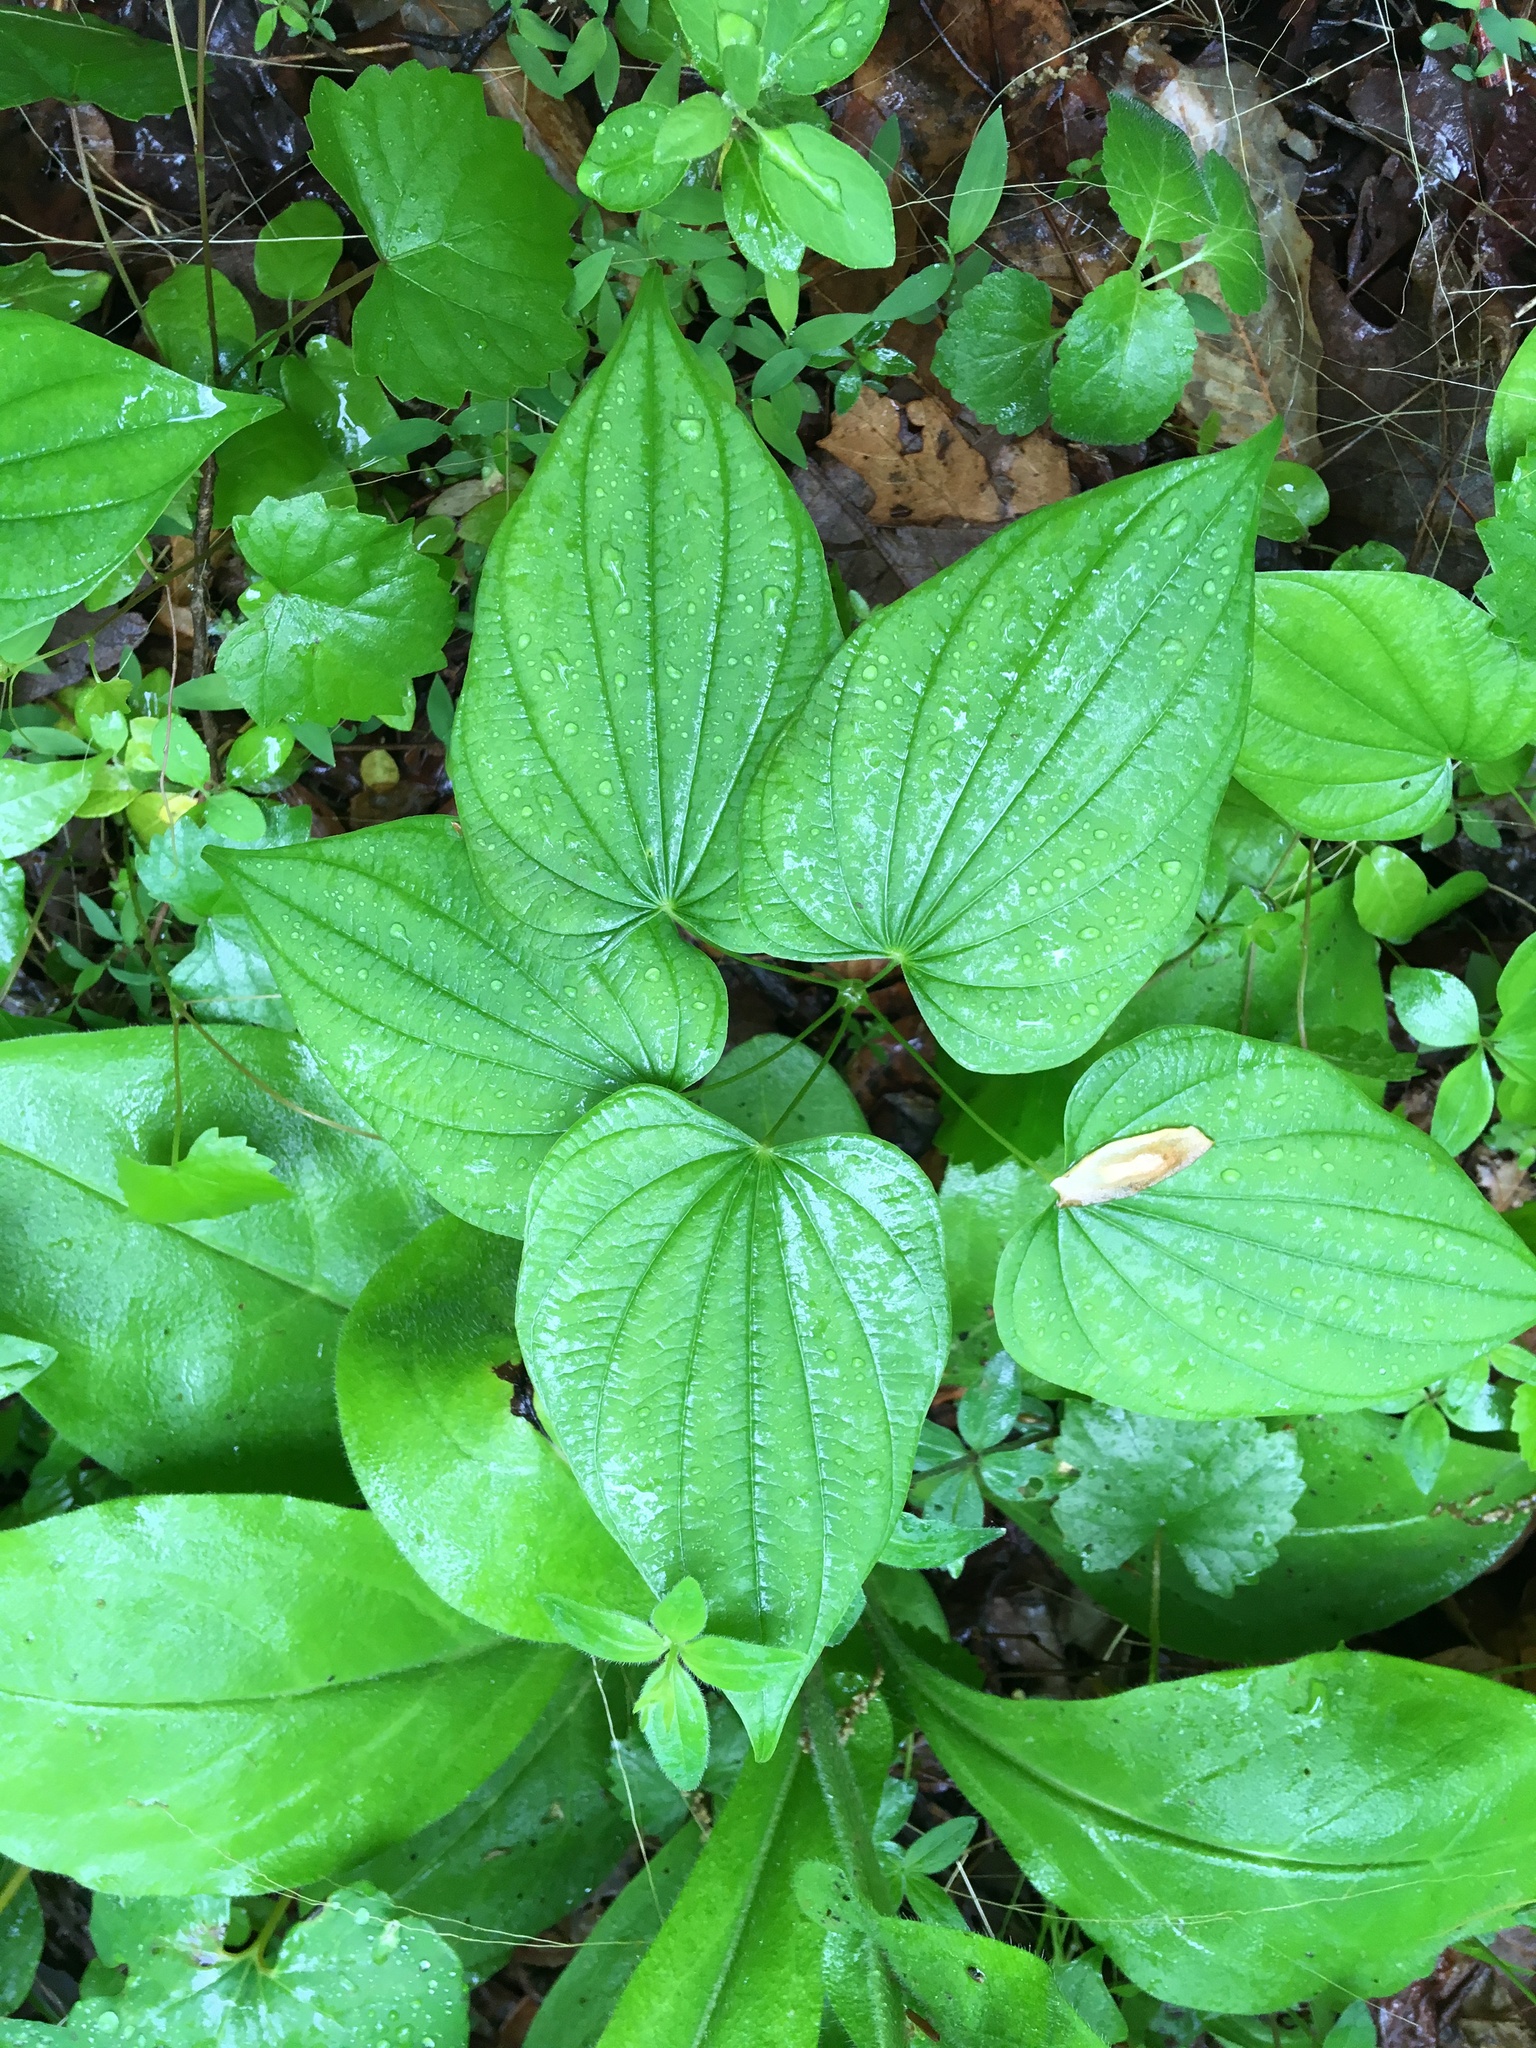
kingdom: Plantae
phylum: Tracheophyta
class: Liliopsida
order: Dioscoreales
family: Dioscoreaceae
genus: Dioscorea
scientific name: Dioscorea villosa
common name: Wild yam
